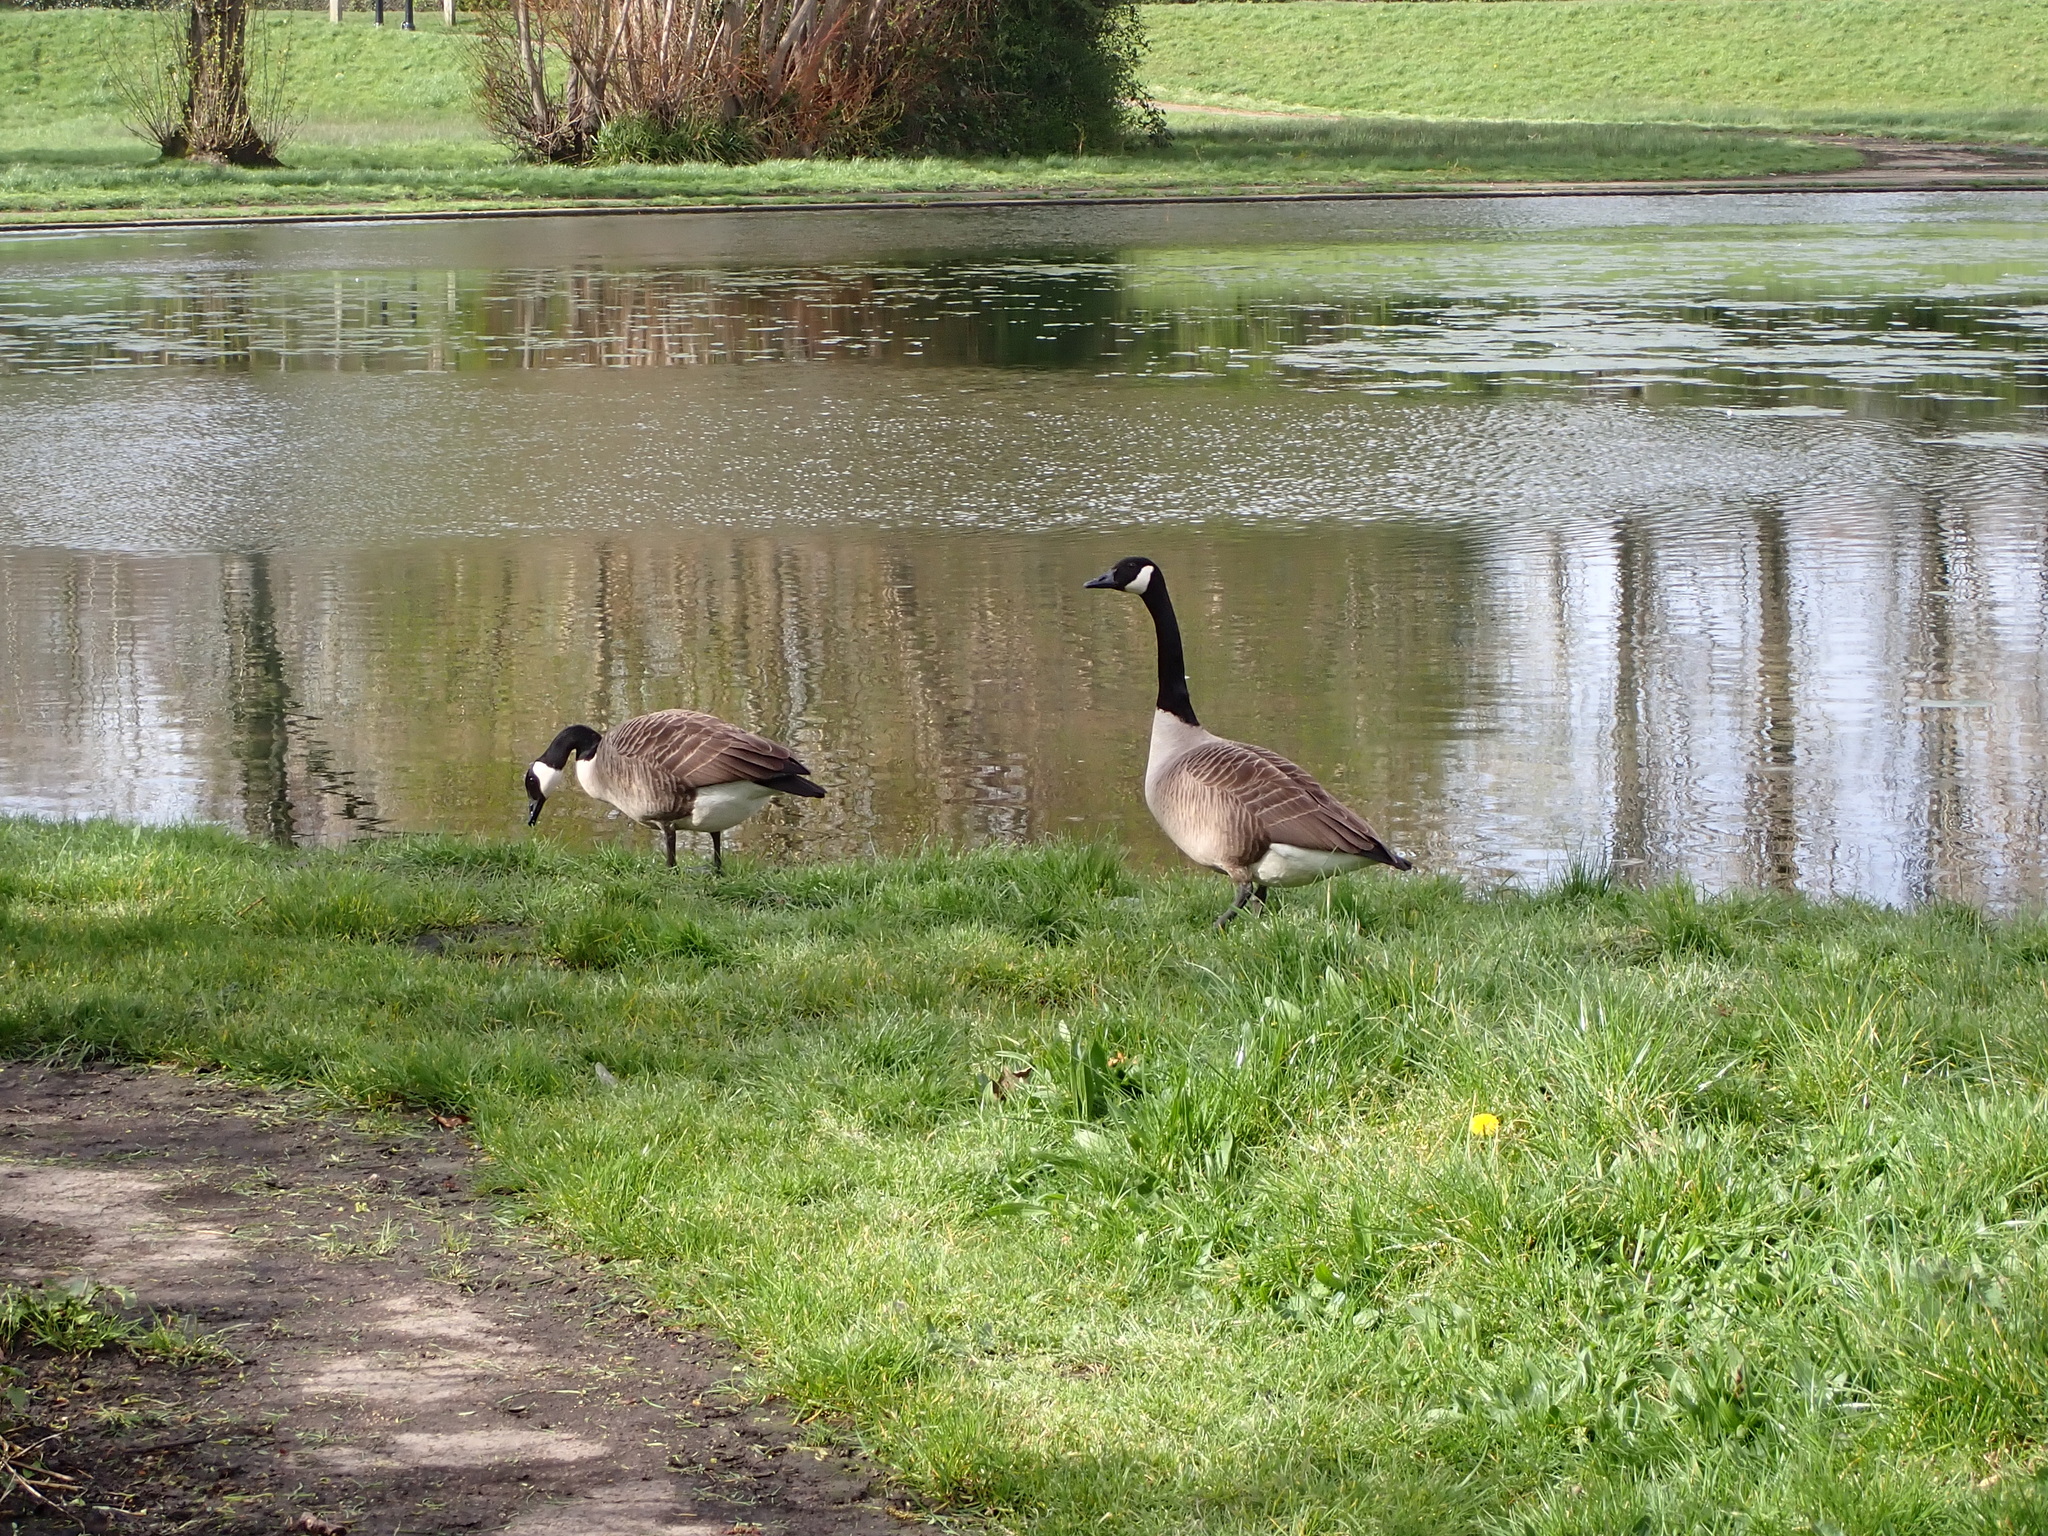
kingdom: Animalia
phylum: Chordata
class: Aves
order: Anseriformes
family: Anatidae
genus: Branta
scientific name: Branta canadensis
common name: Canada goose
